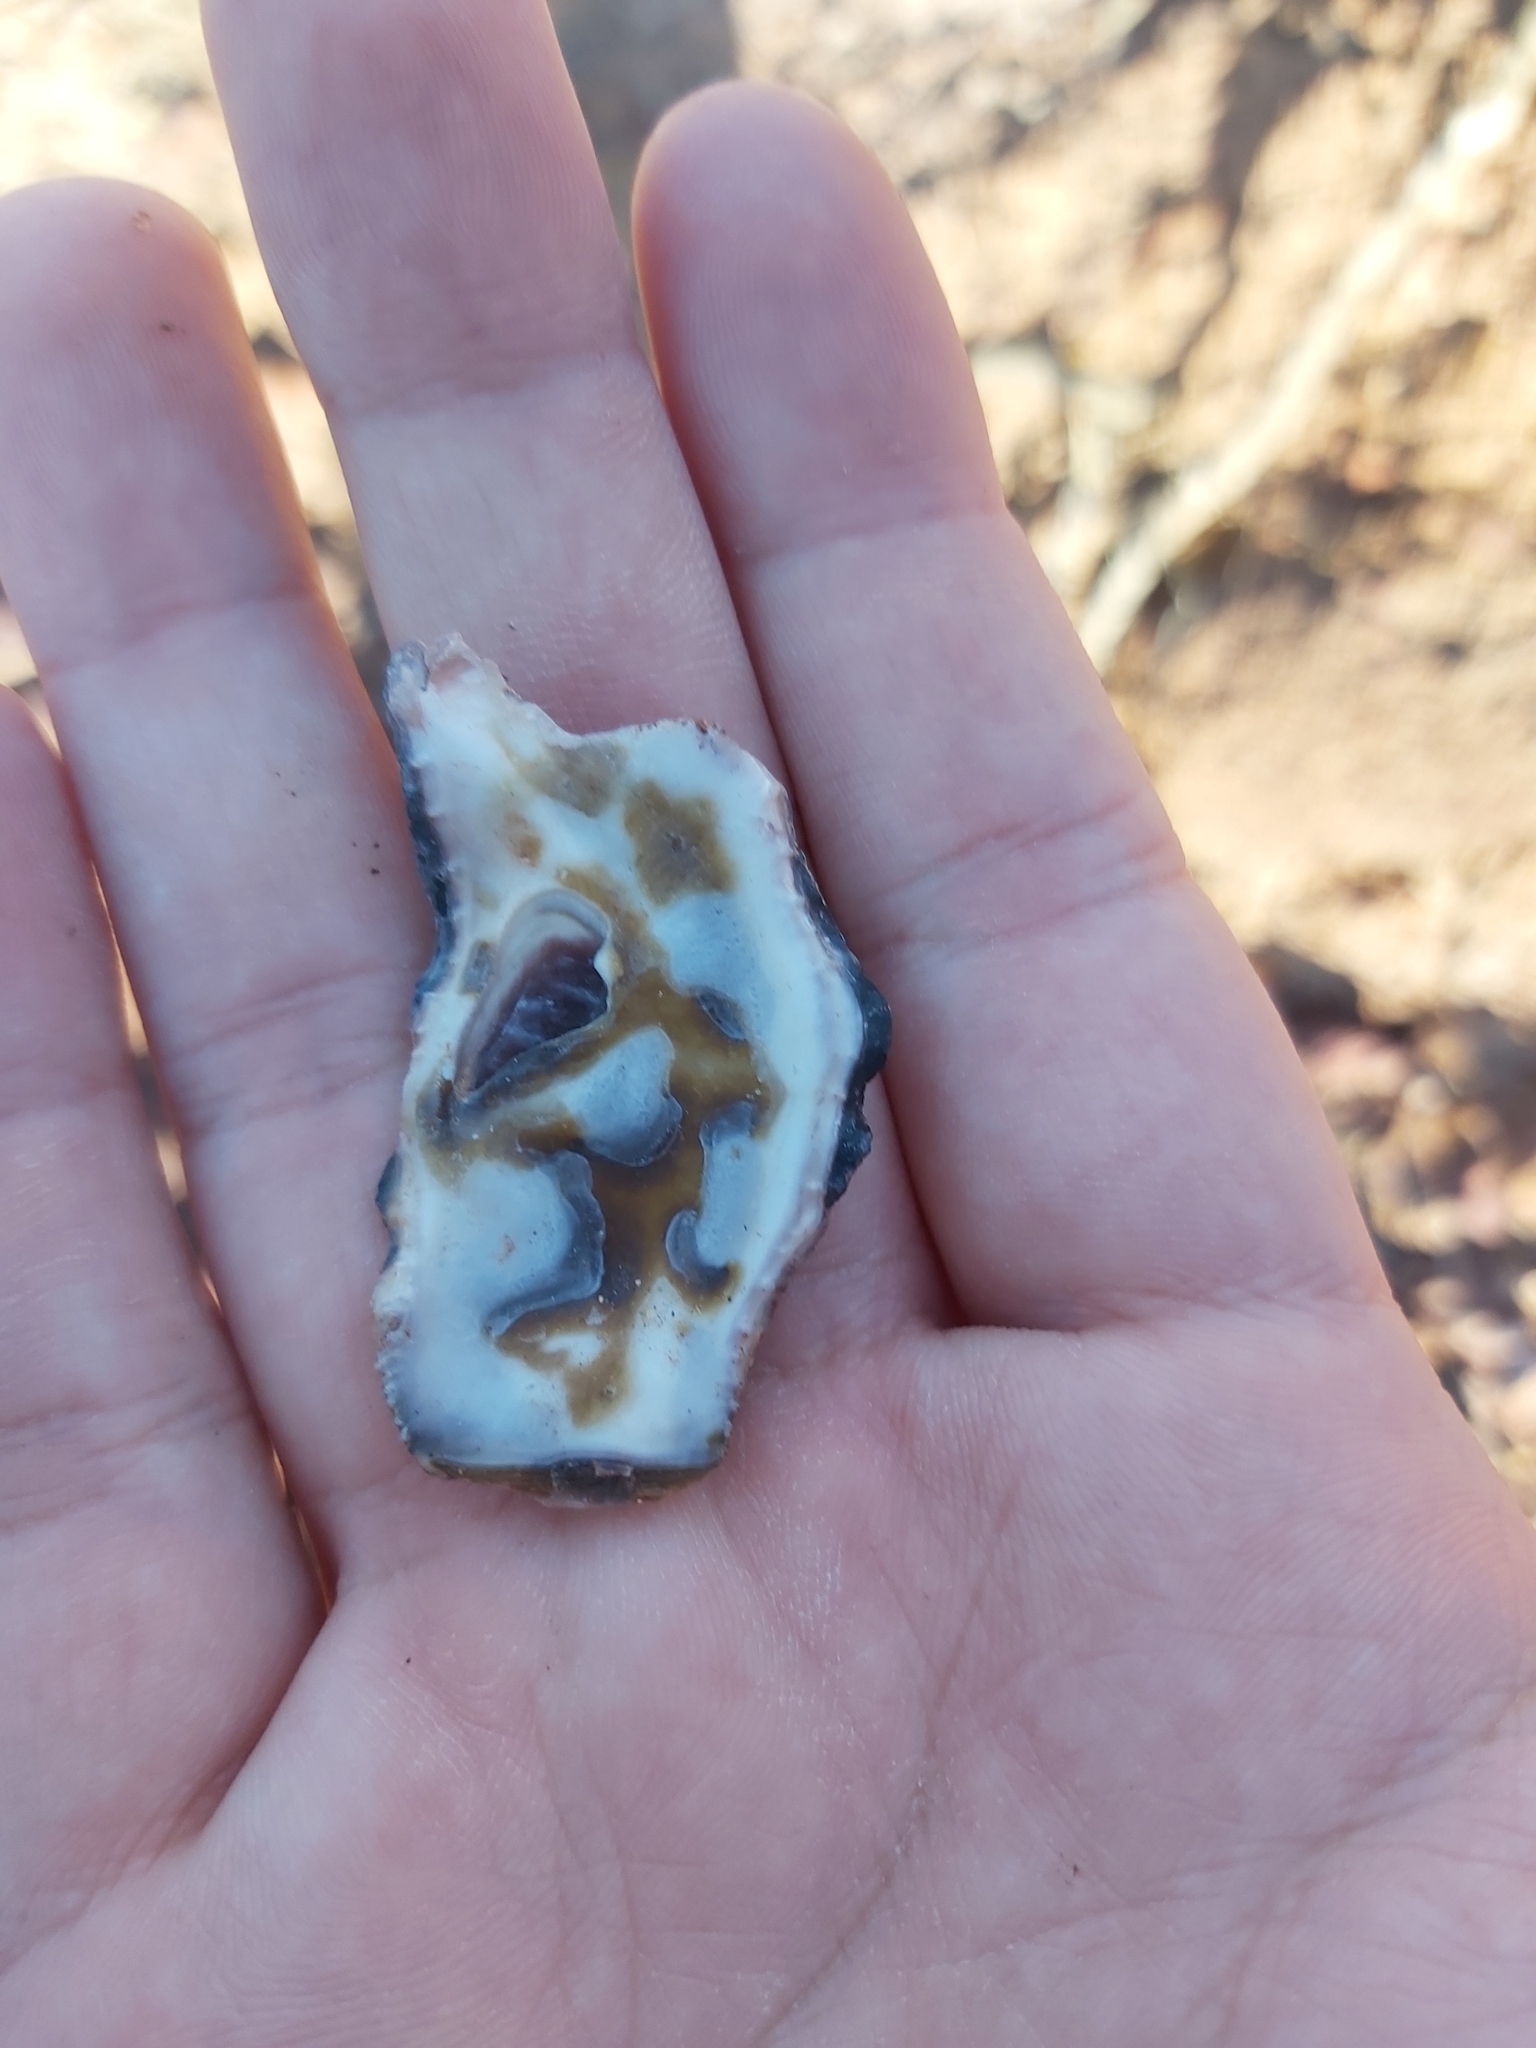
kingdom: Animalia
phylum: Mollusca
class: Bivalvia
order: Ostreida
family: Ostreidae
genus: Saccostrea
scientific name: Saccostrea glomerata
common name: Sydney cupped oyster
